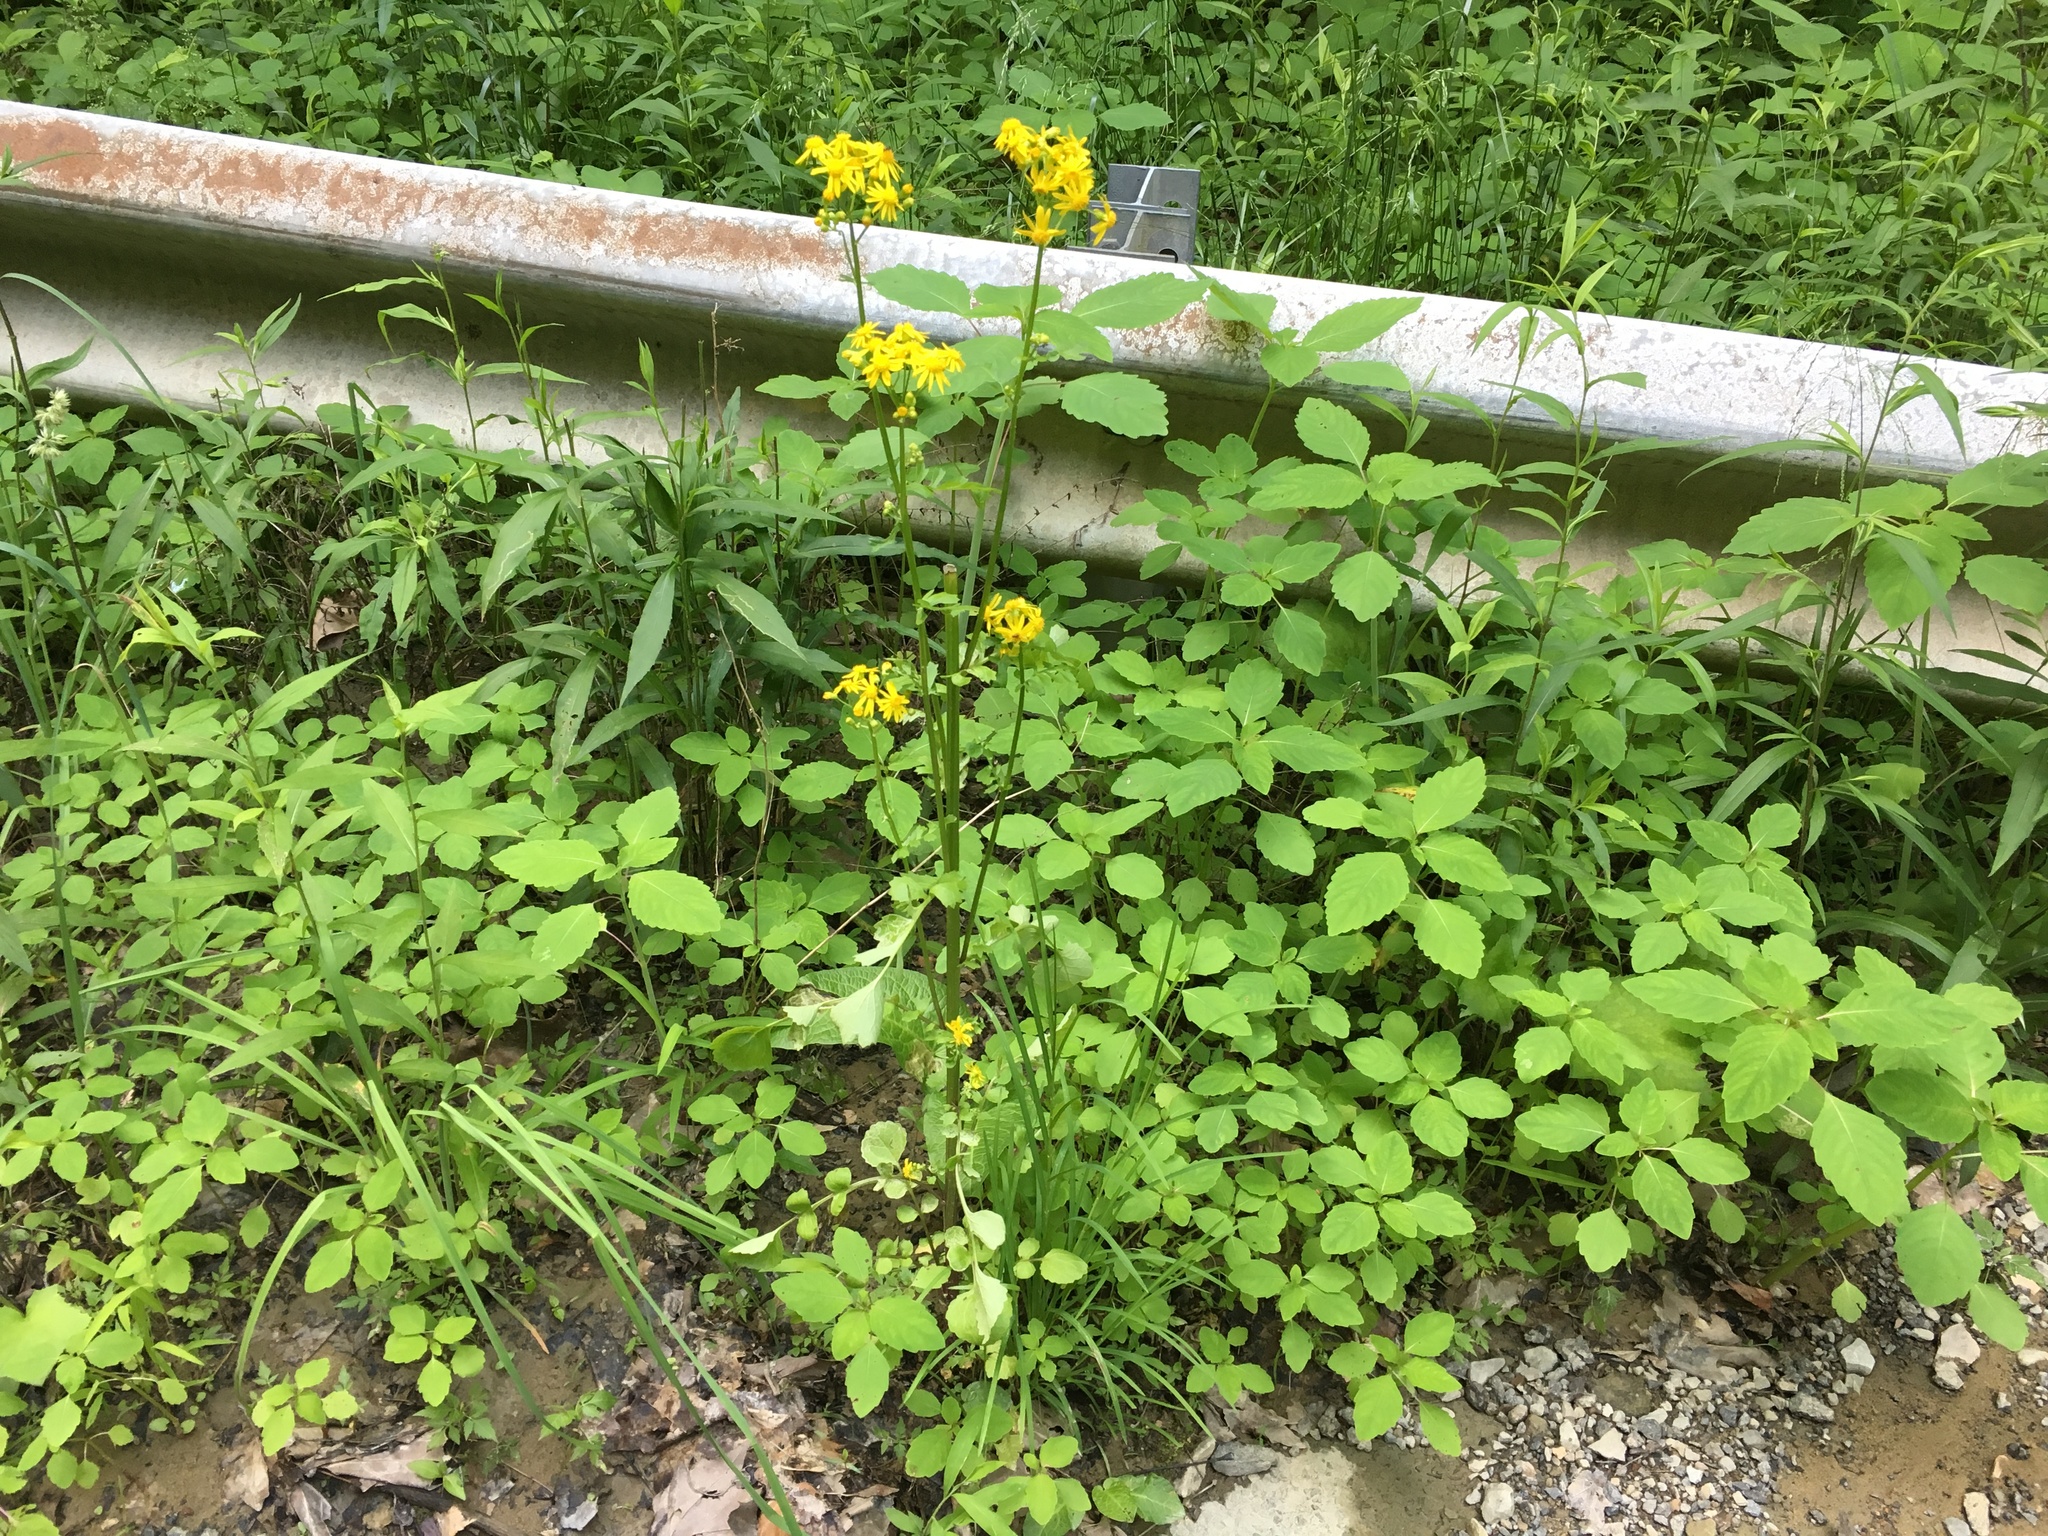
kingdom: Plantae
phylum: Tracheophyta
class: Magnoliopsida
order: Asterales
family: Asteraceae
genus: Packera
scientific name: Packera glabella
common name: Butterweed
